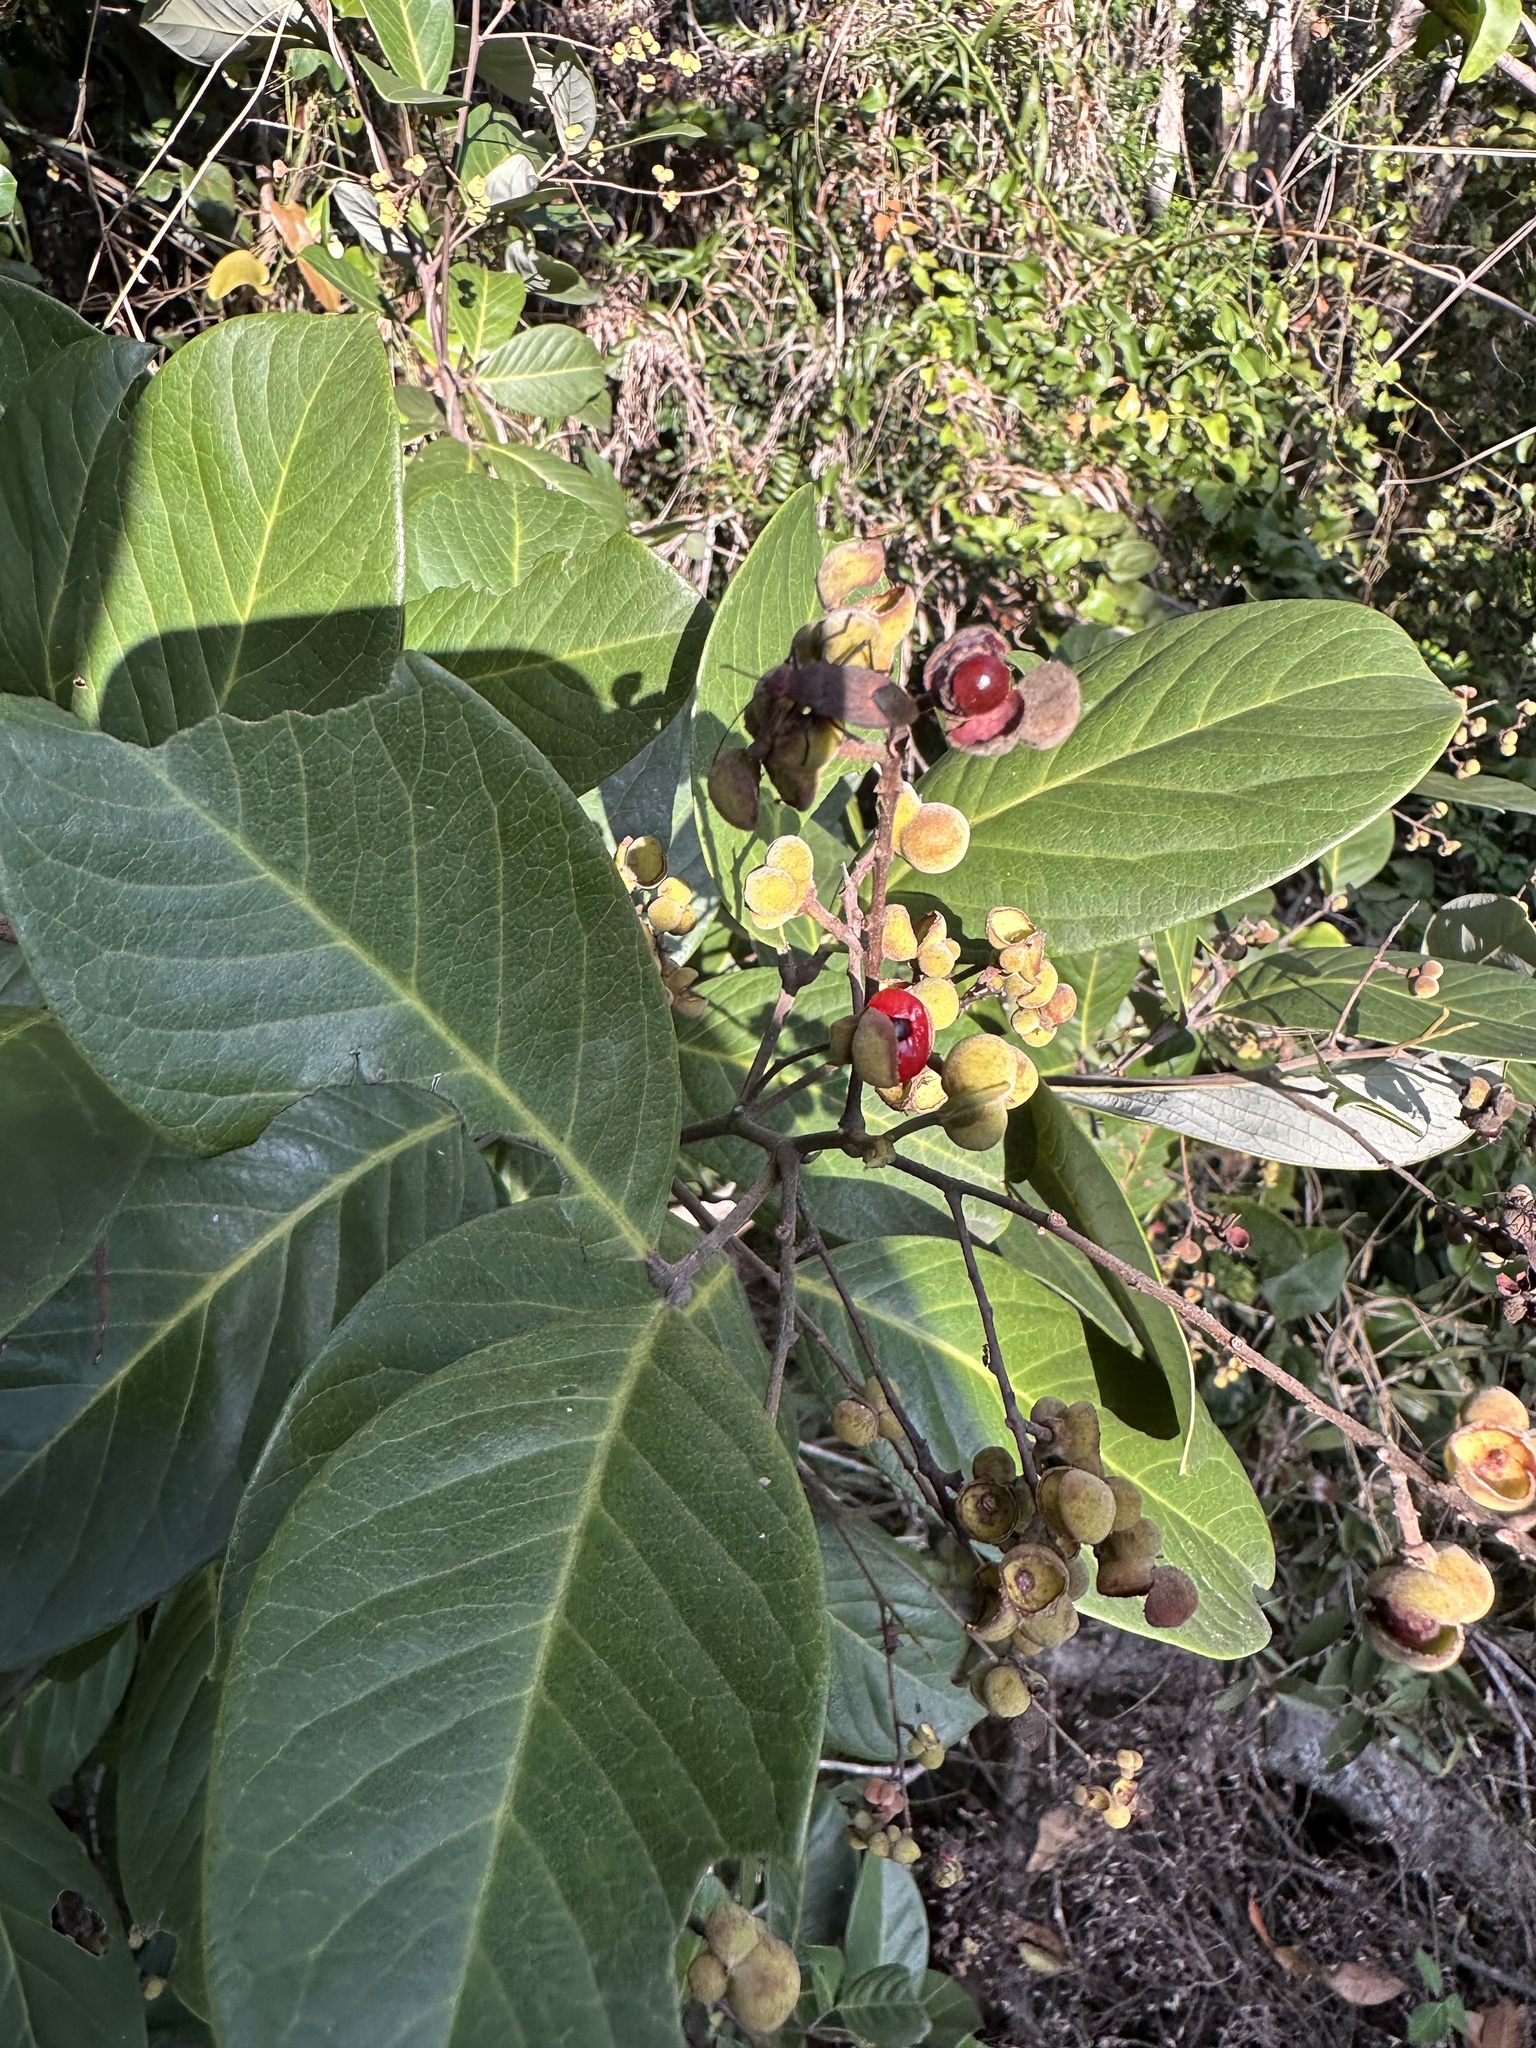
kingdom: Plantae
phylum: Tracheophyta
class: Magnoliopsida
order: Sapindales
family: Sapindaceae
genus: Alectryon
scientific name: Alectryon coriaceus
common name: Beach alectryon
